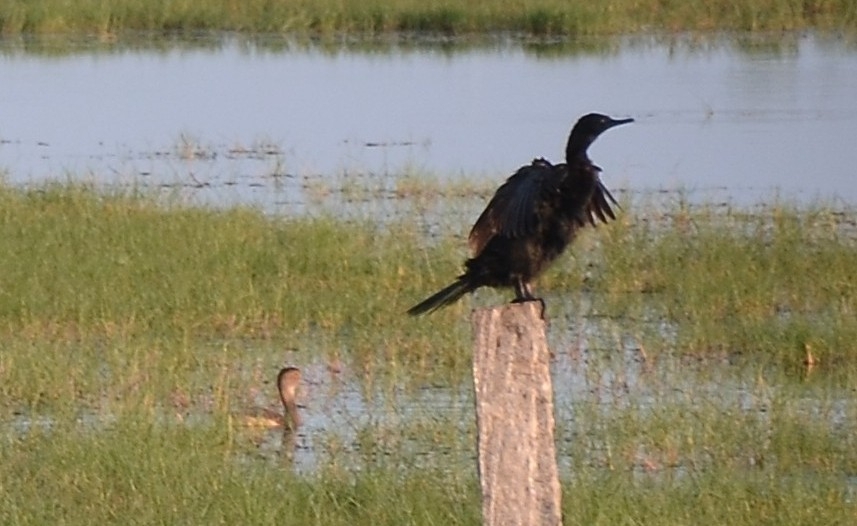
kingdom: Animalia
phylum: Chordata
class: Aves
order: Suliformes
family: Phalacrocoracidae
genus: Microcarbo
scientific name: Microcarbo niger
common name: Little cormorant
